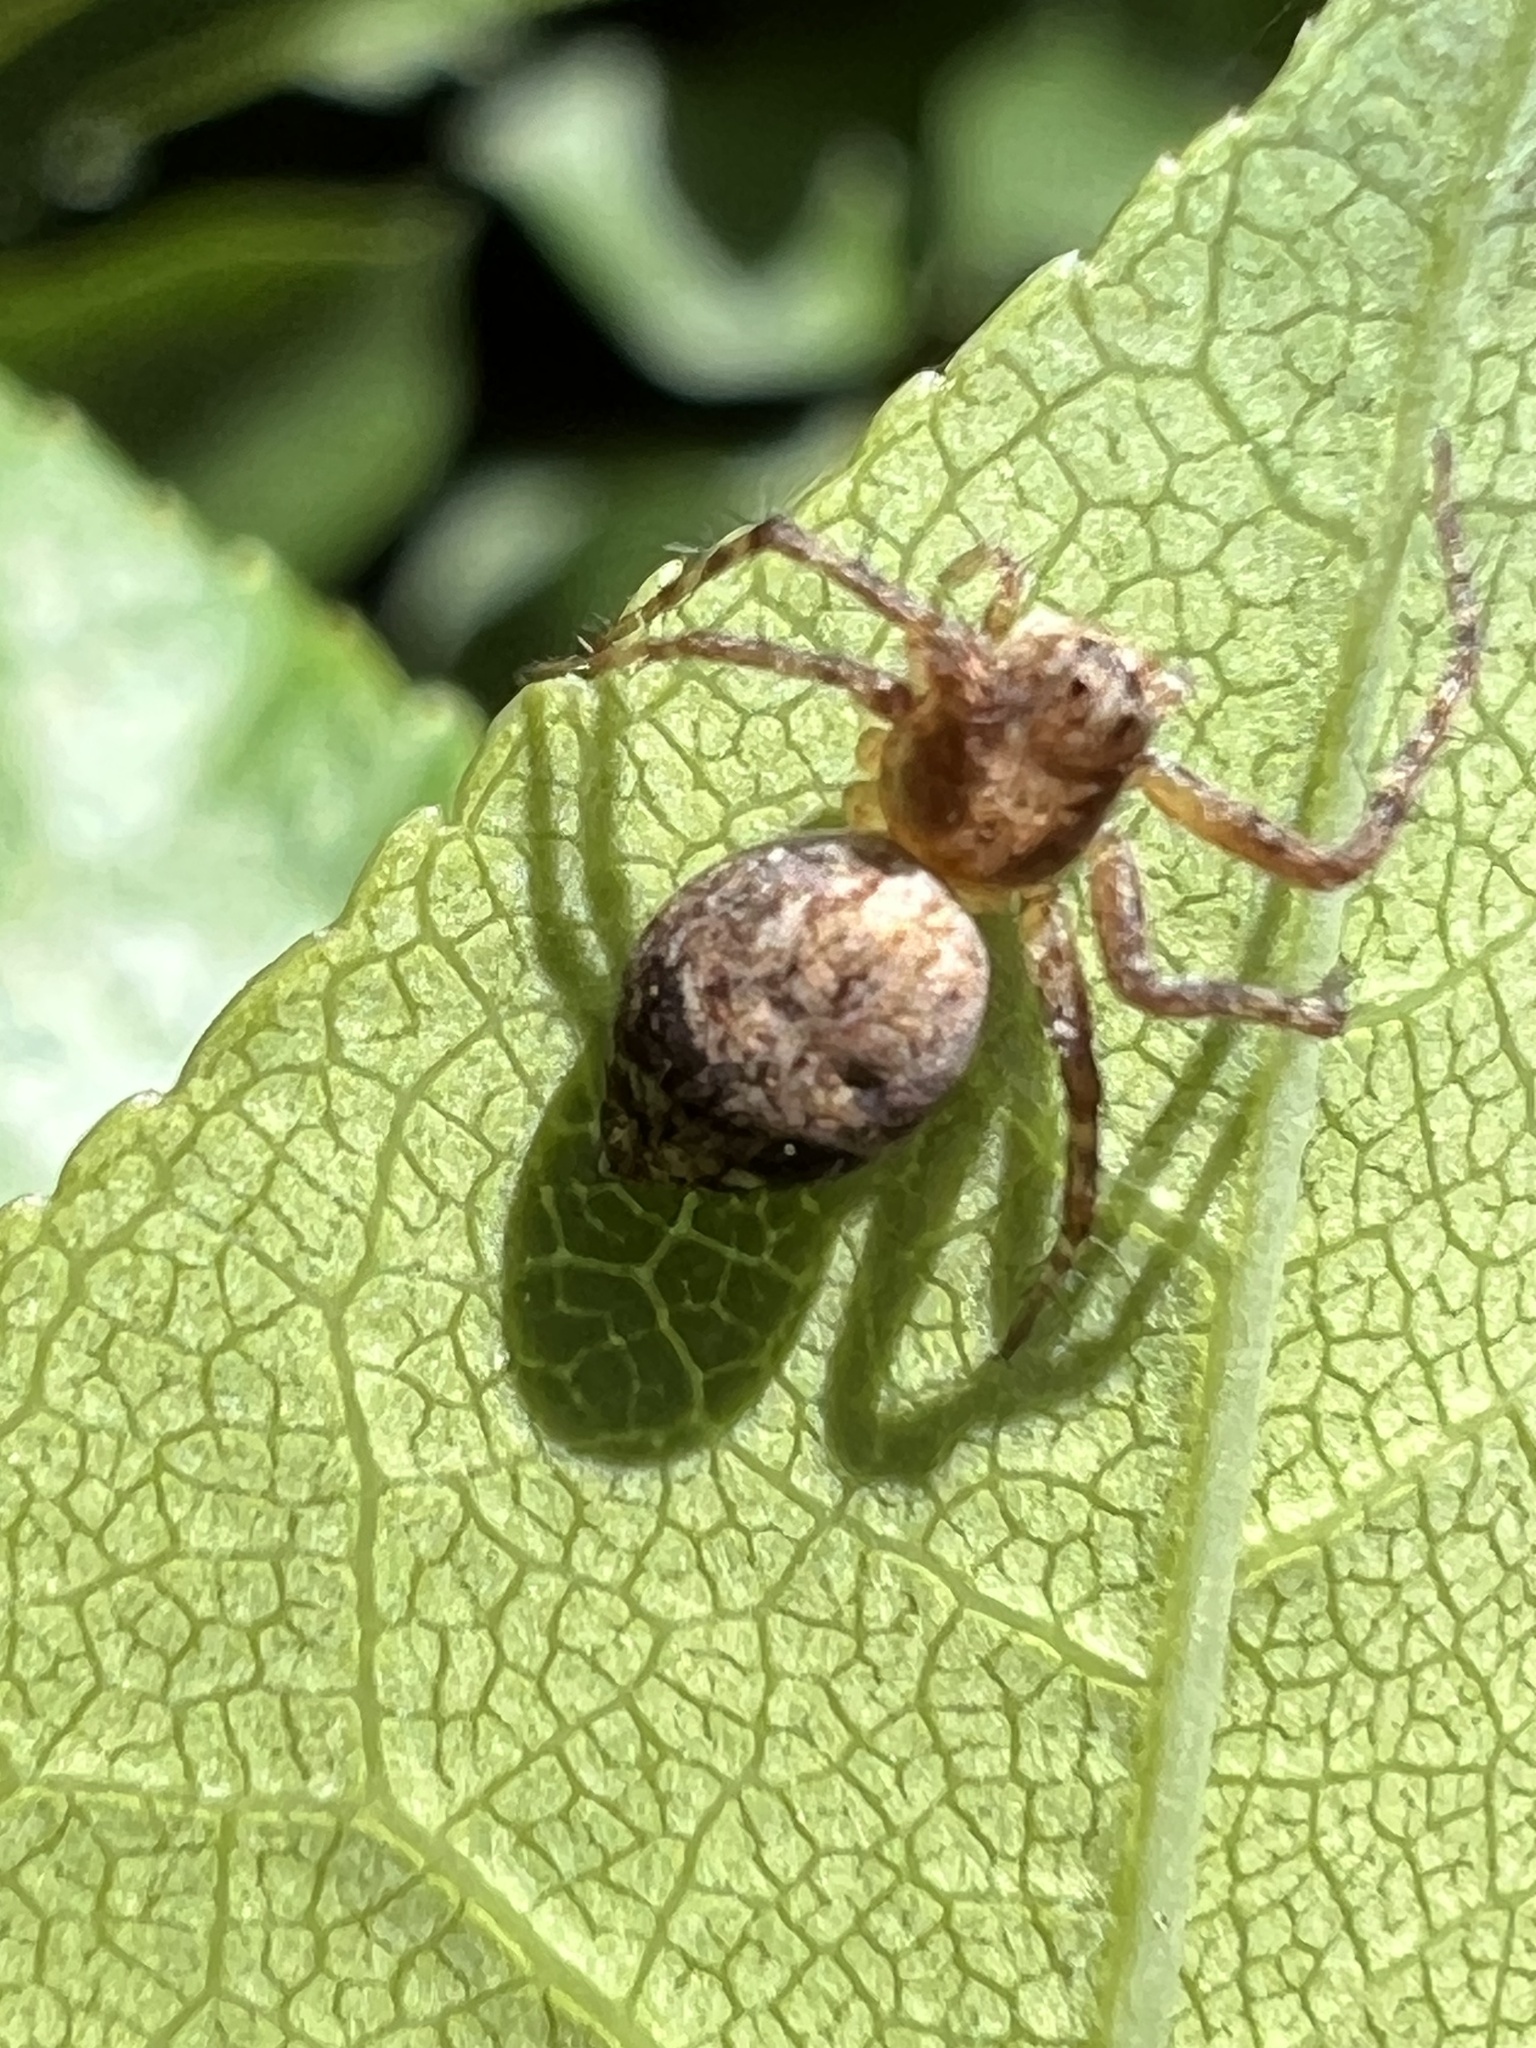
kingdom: Animalia
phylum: Arthropoda
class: Arachnida
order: Araneae
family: Oxyopidae
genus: Oxyopes
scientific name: Oxyopes scalaris
